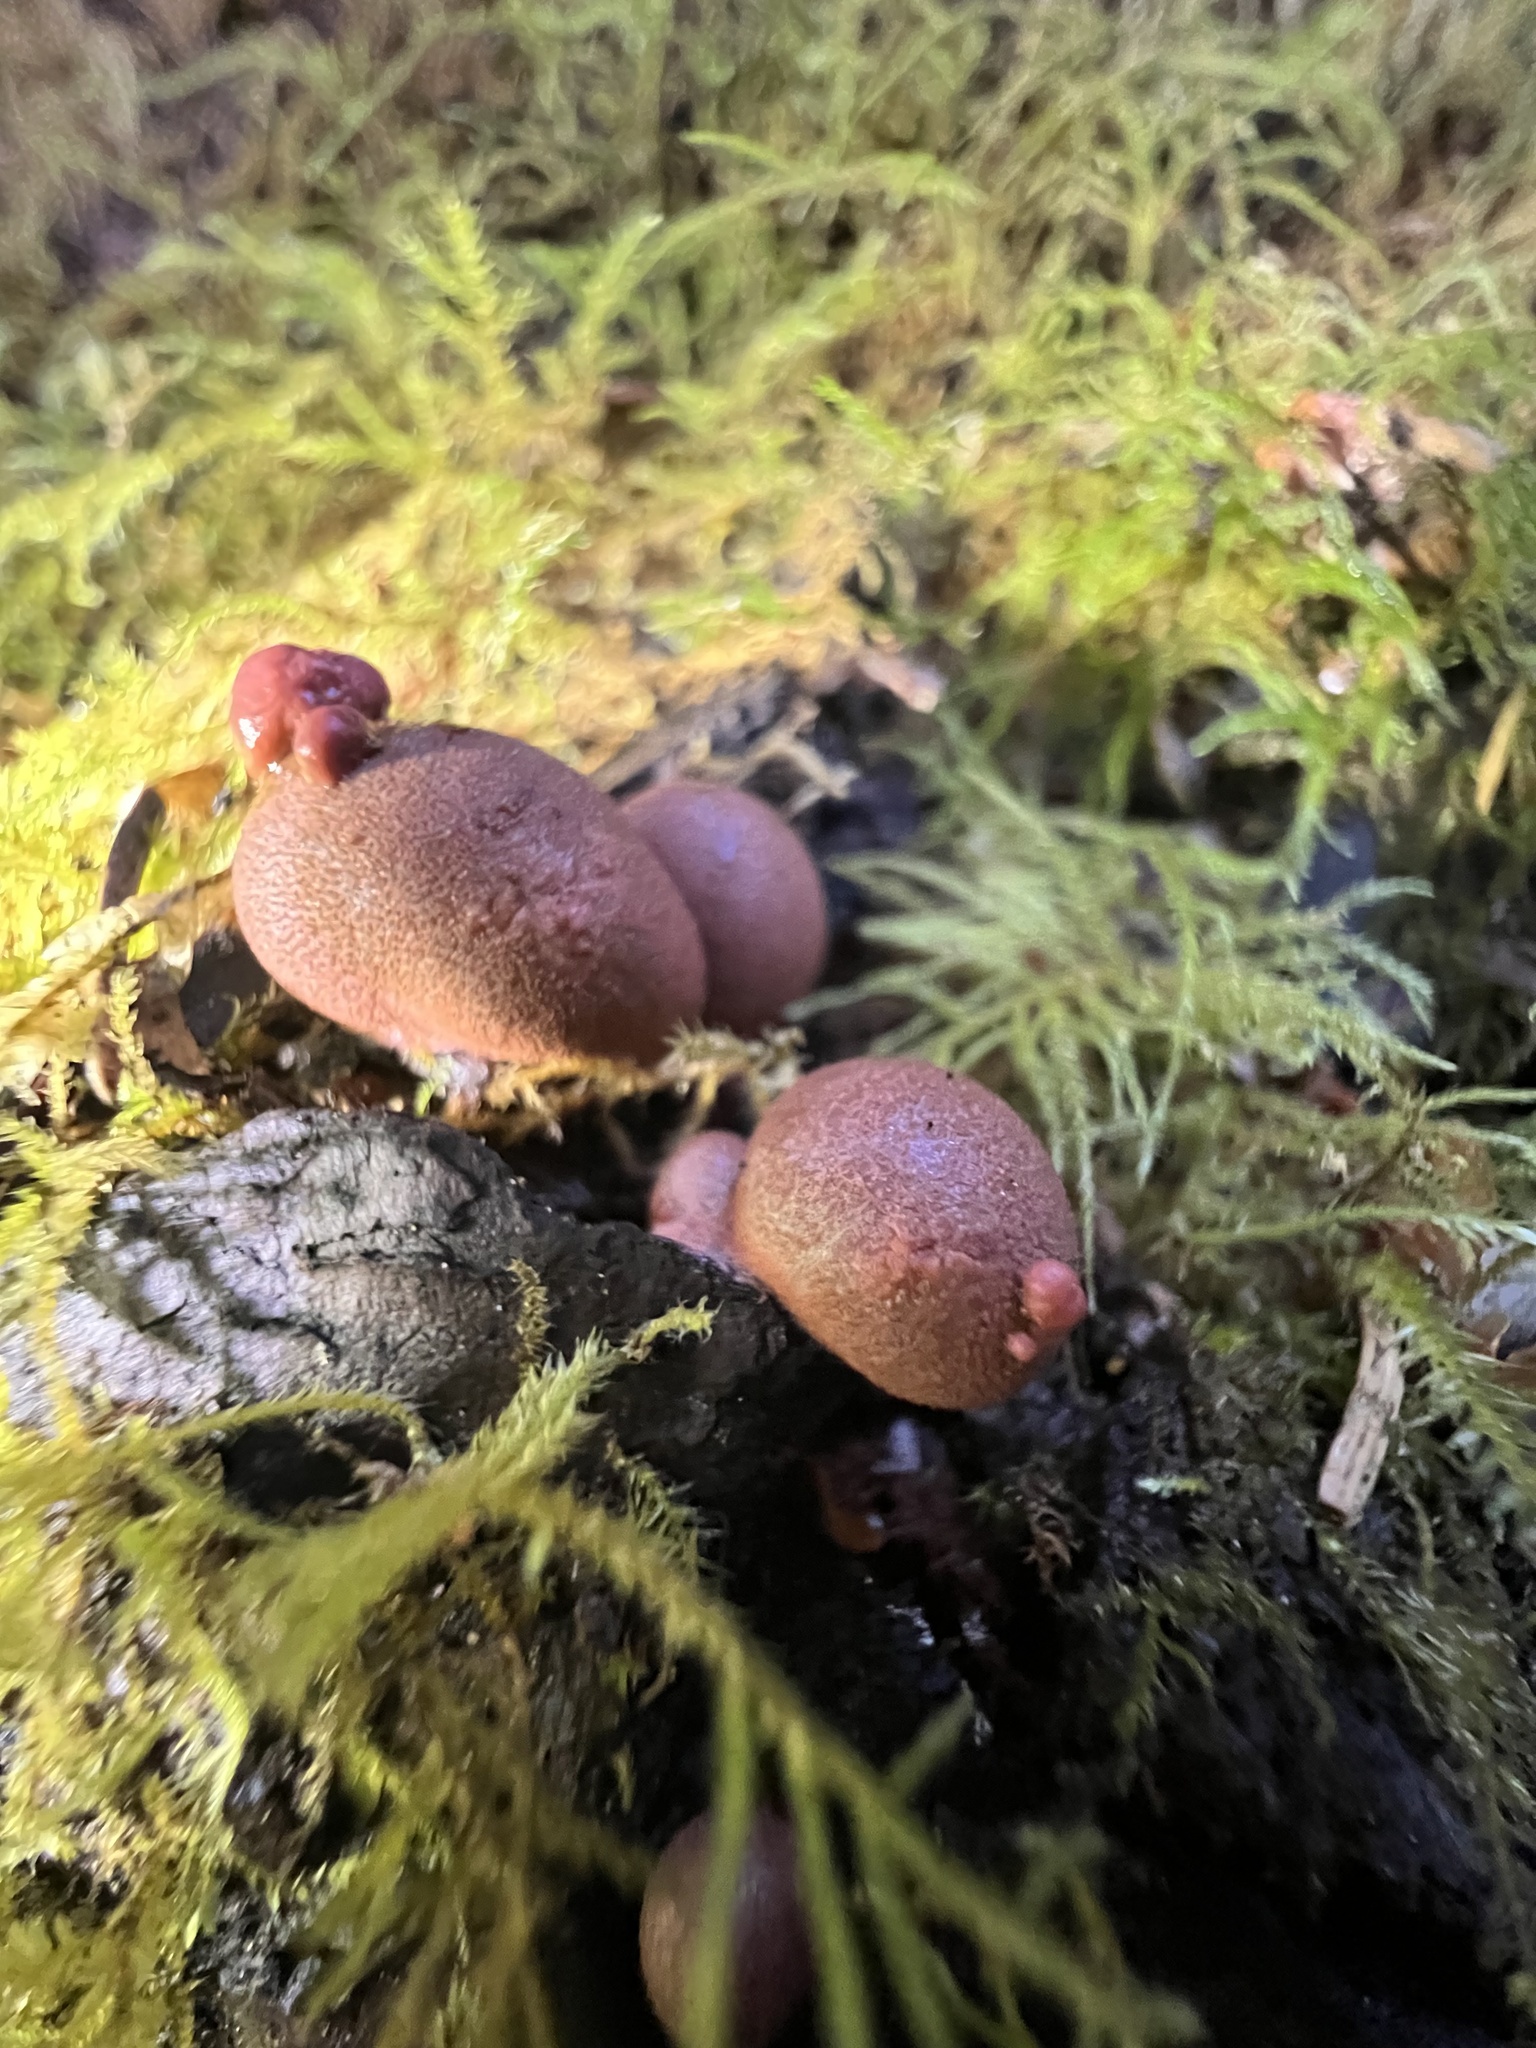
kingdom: Protozoa
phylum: Mycetozoa
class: Myxomycetes
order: Cribrariales
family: Tubiferaceae
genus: Lycogala
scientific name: Lycogala epidendrum
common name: Wolf's milk
